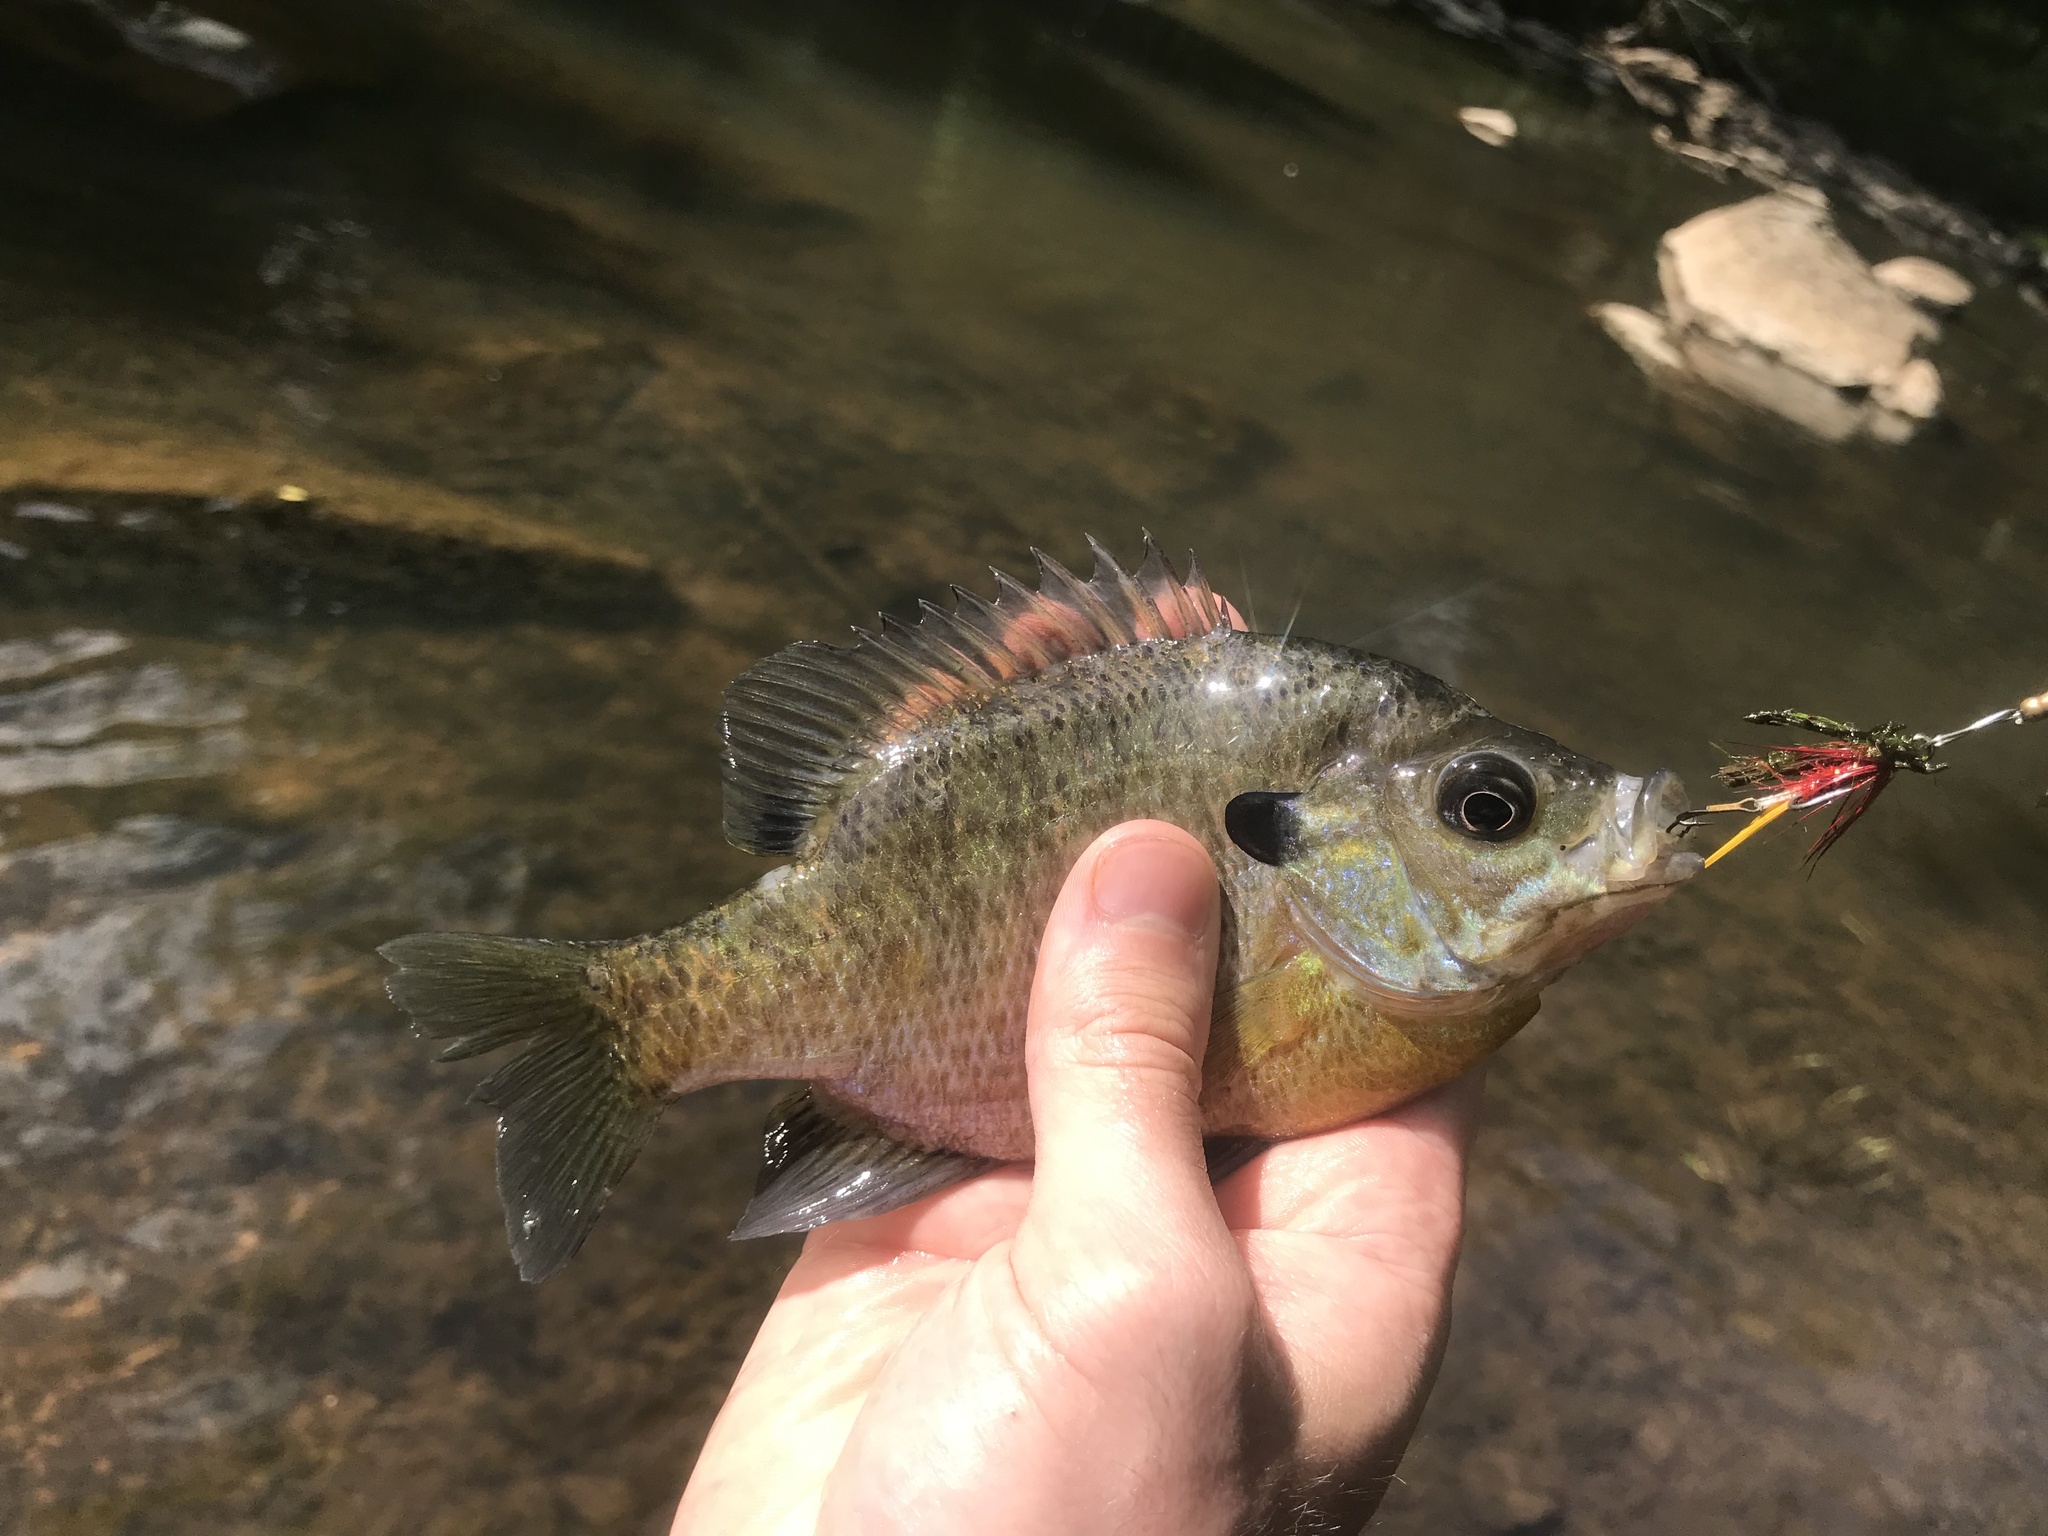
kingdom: Animalia
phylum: Chordata
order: Perciformes
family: Centrarchidae
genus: Lepomis
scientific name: Lepomis macrochirus
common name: Bluegill
